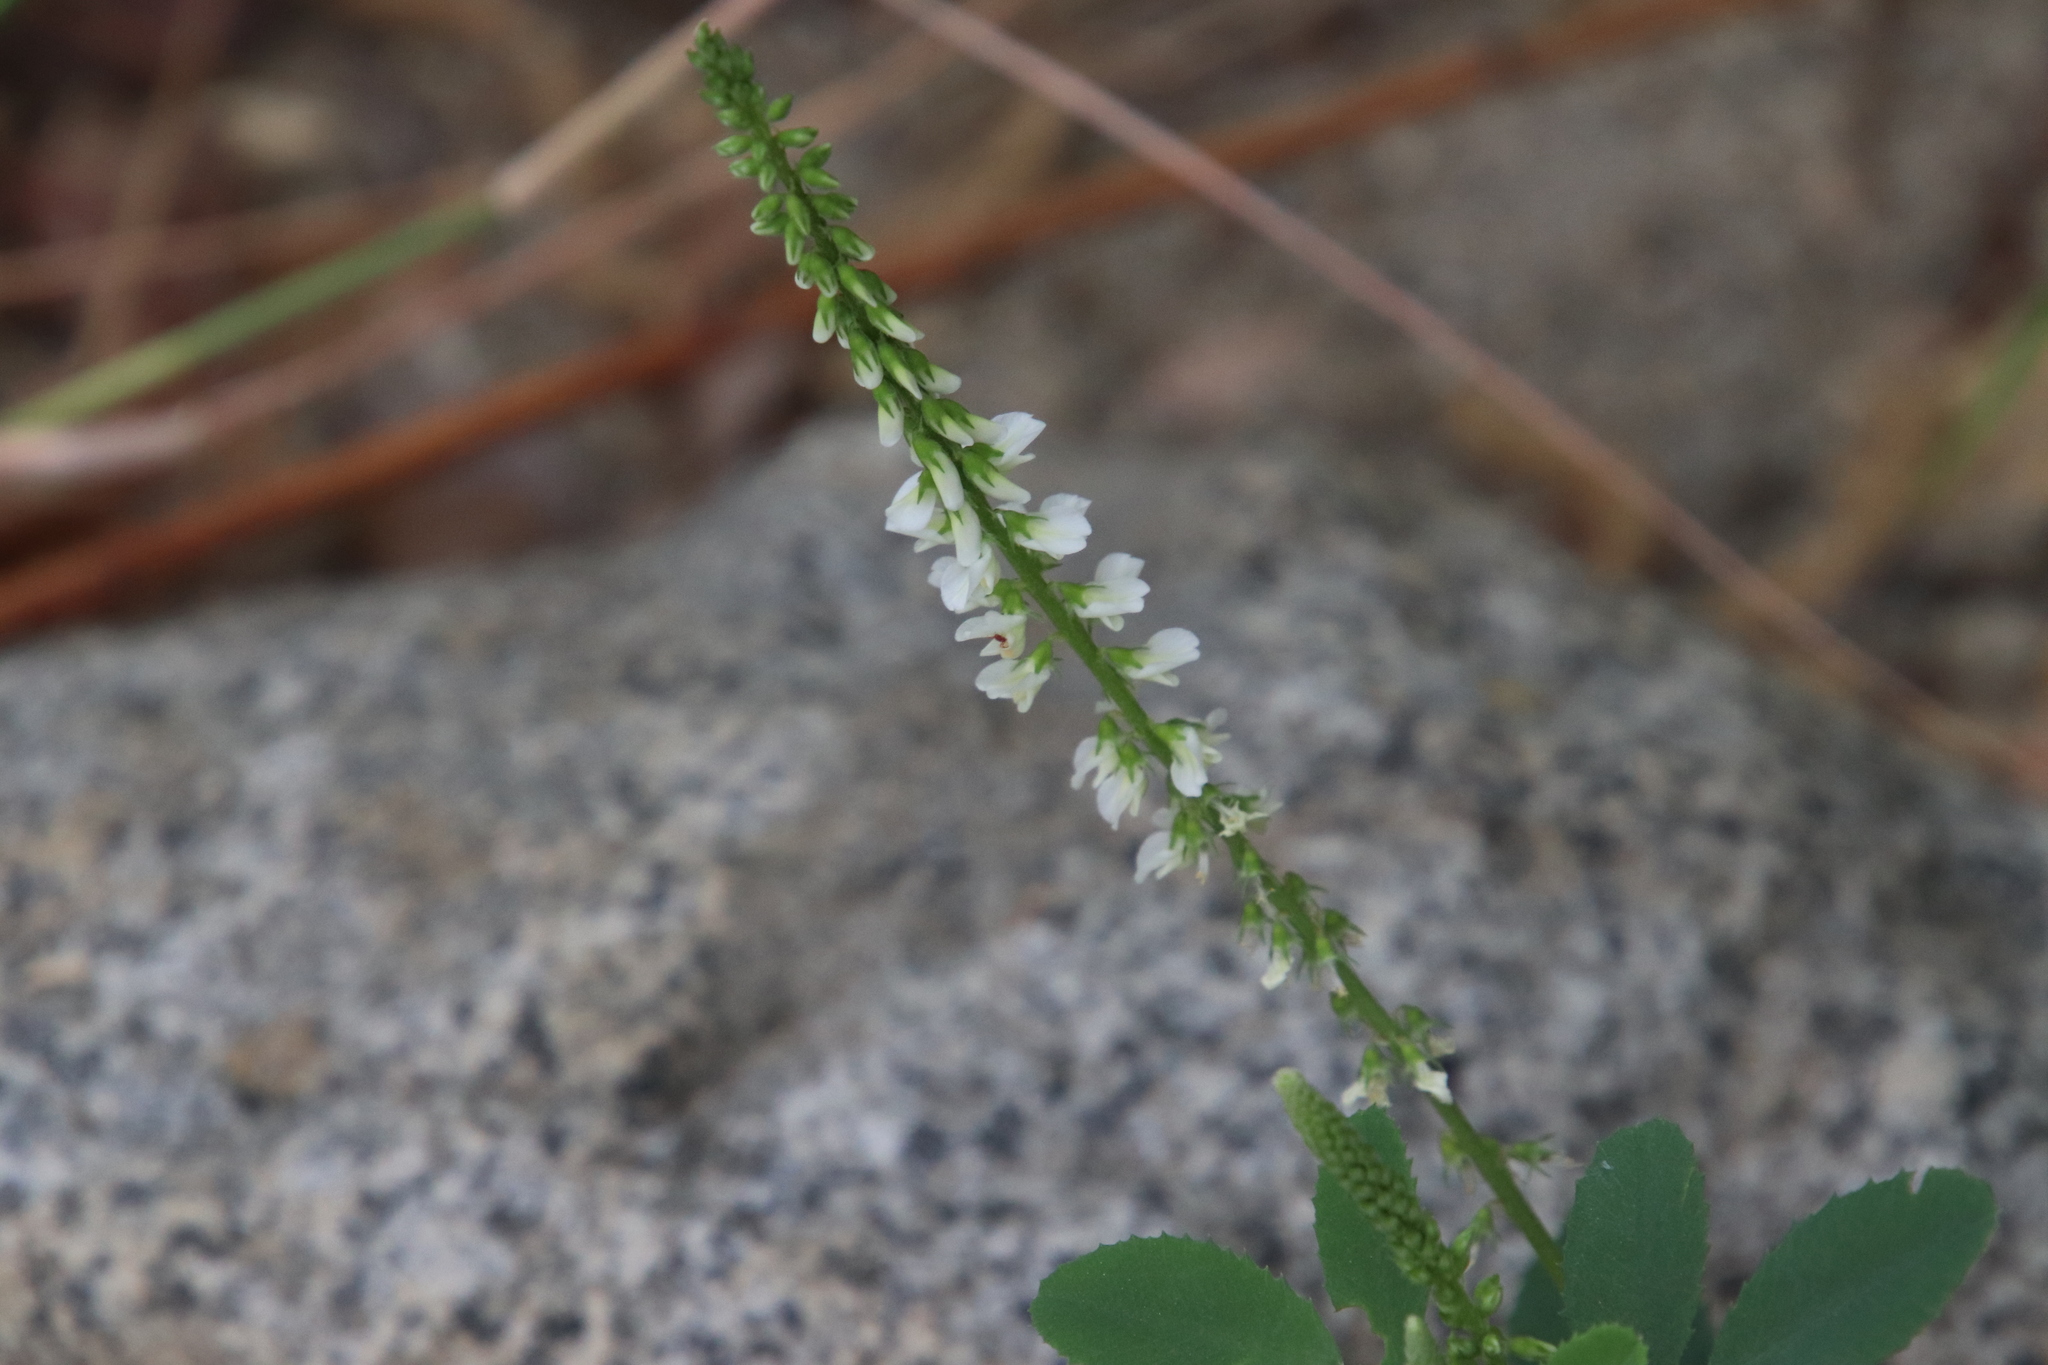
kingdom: Plantae
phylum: Tracheophyta
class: Magnoliopsida
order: Fabales
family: Fabaceae
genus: Melilotus
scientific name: Melilotus albus
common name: White melilot
